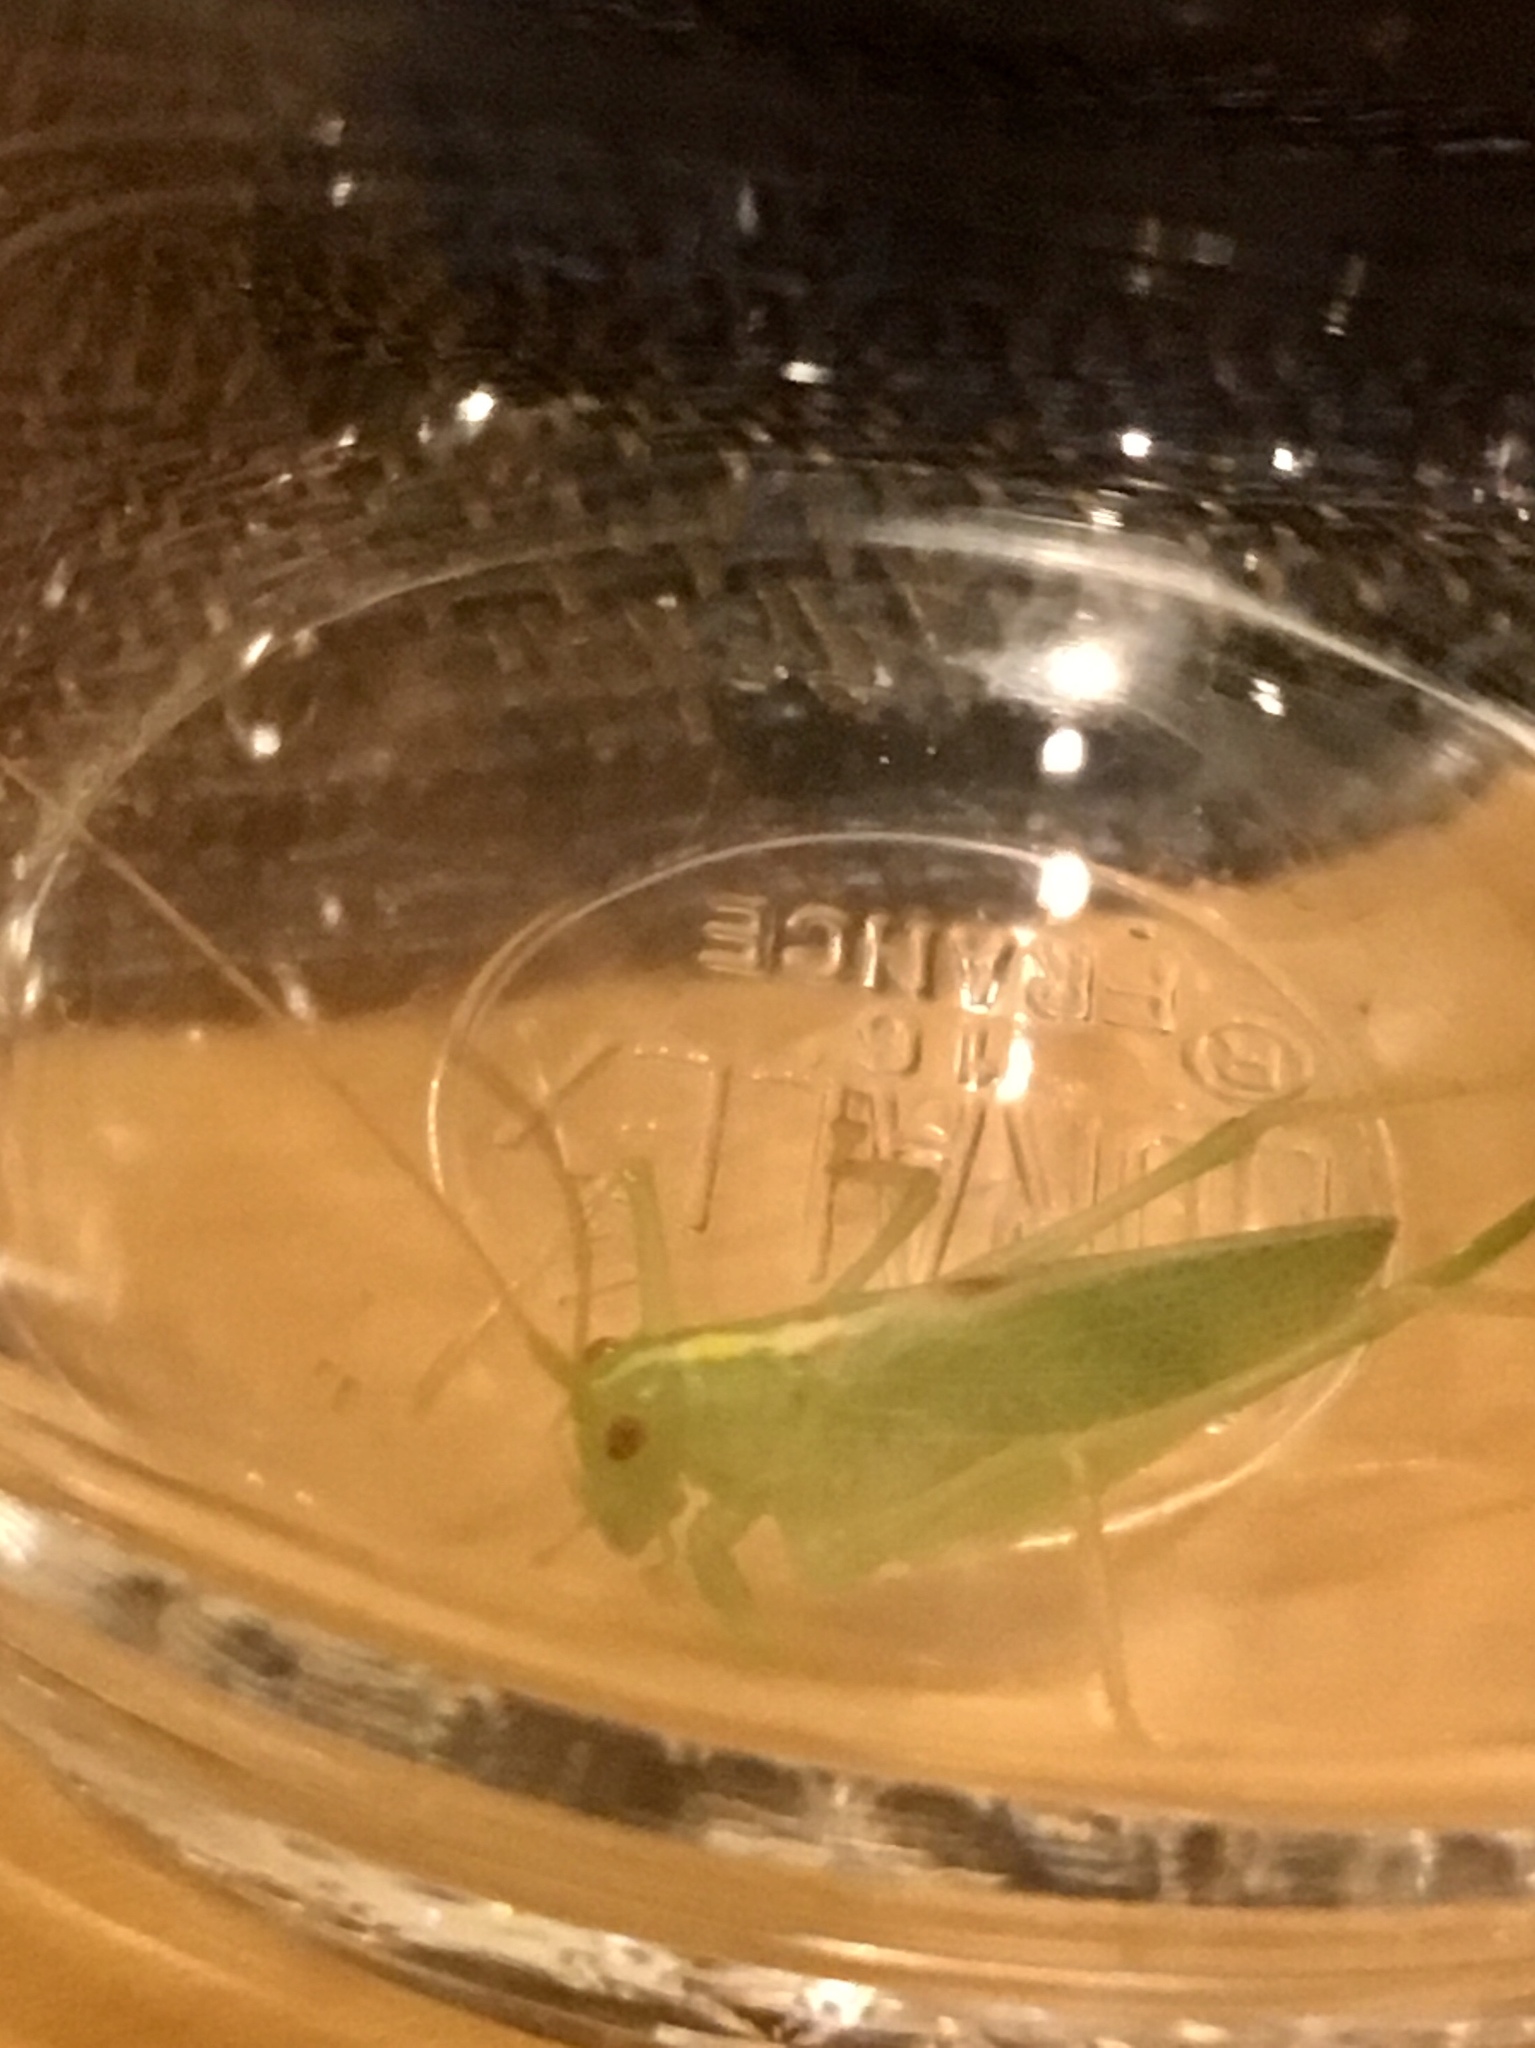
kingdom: Animalia
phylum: Arthropoda
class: Insecta
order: Orthoptera
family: Tettigoniidae
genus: Meconema
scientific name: Meconema thalassinum
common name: Oak bush-cricket
